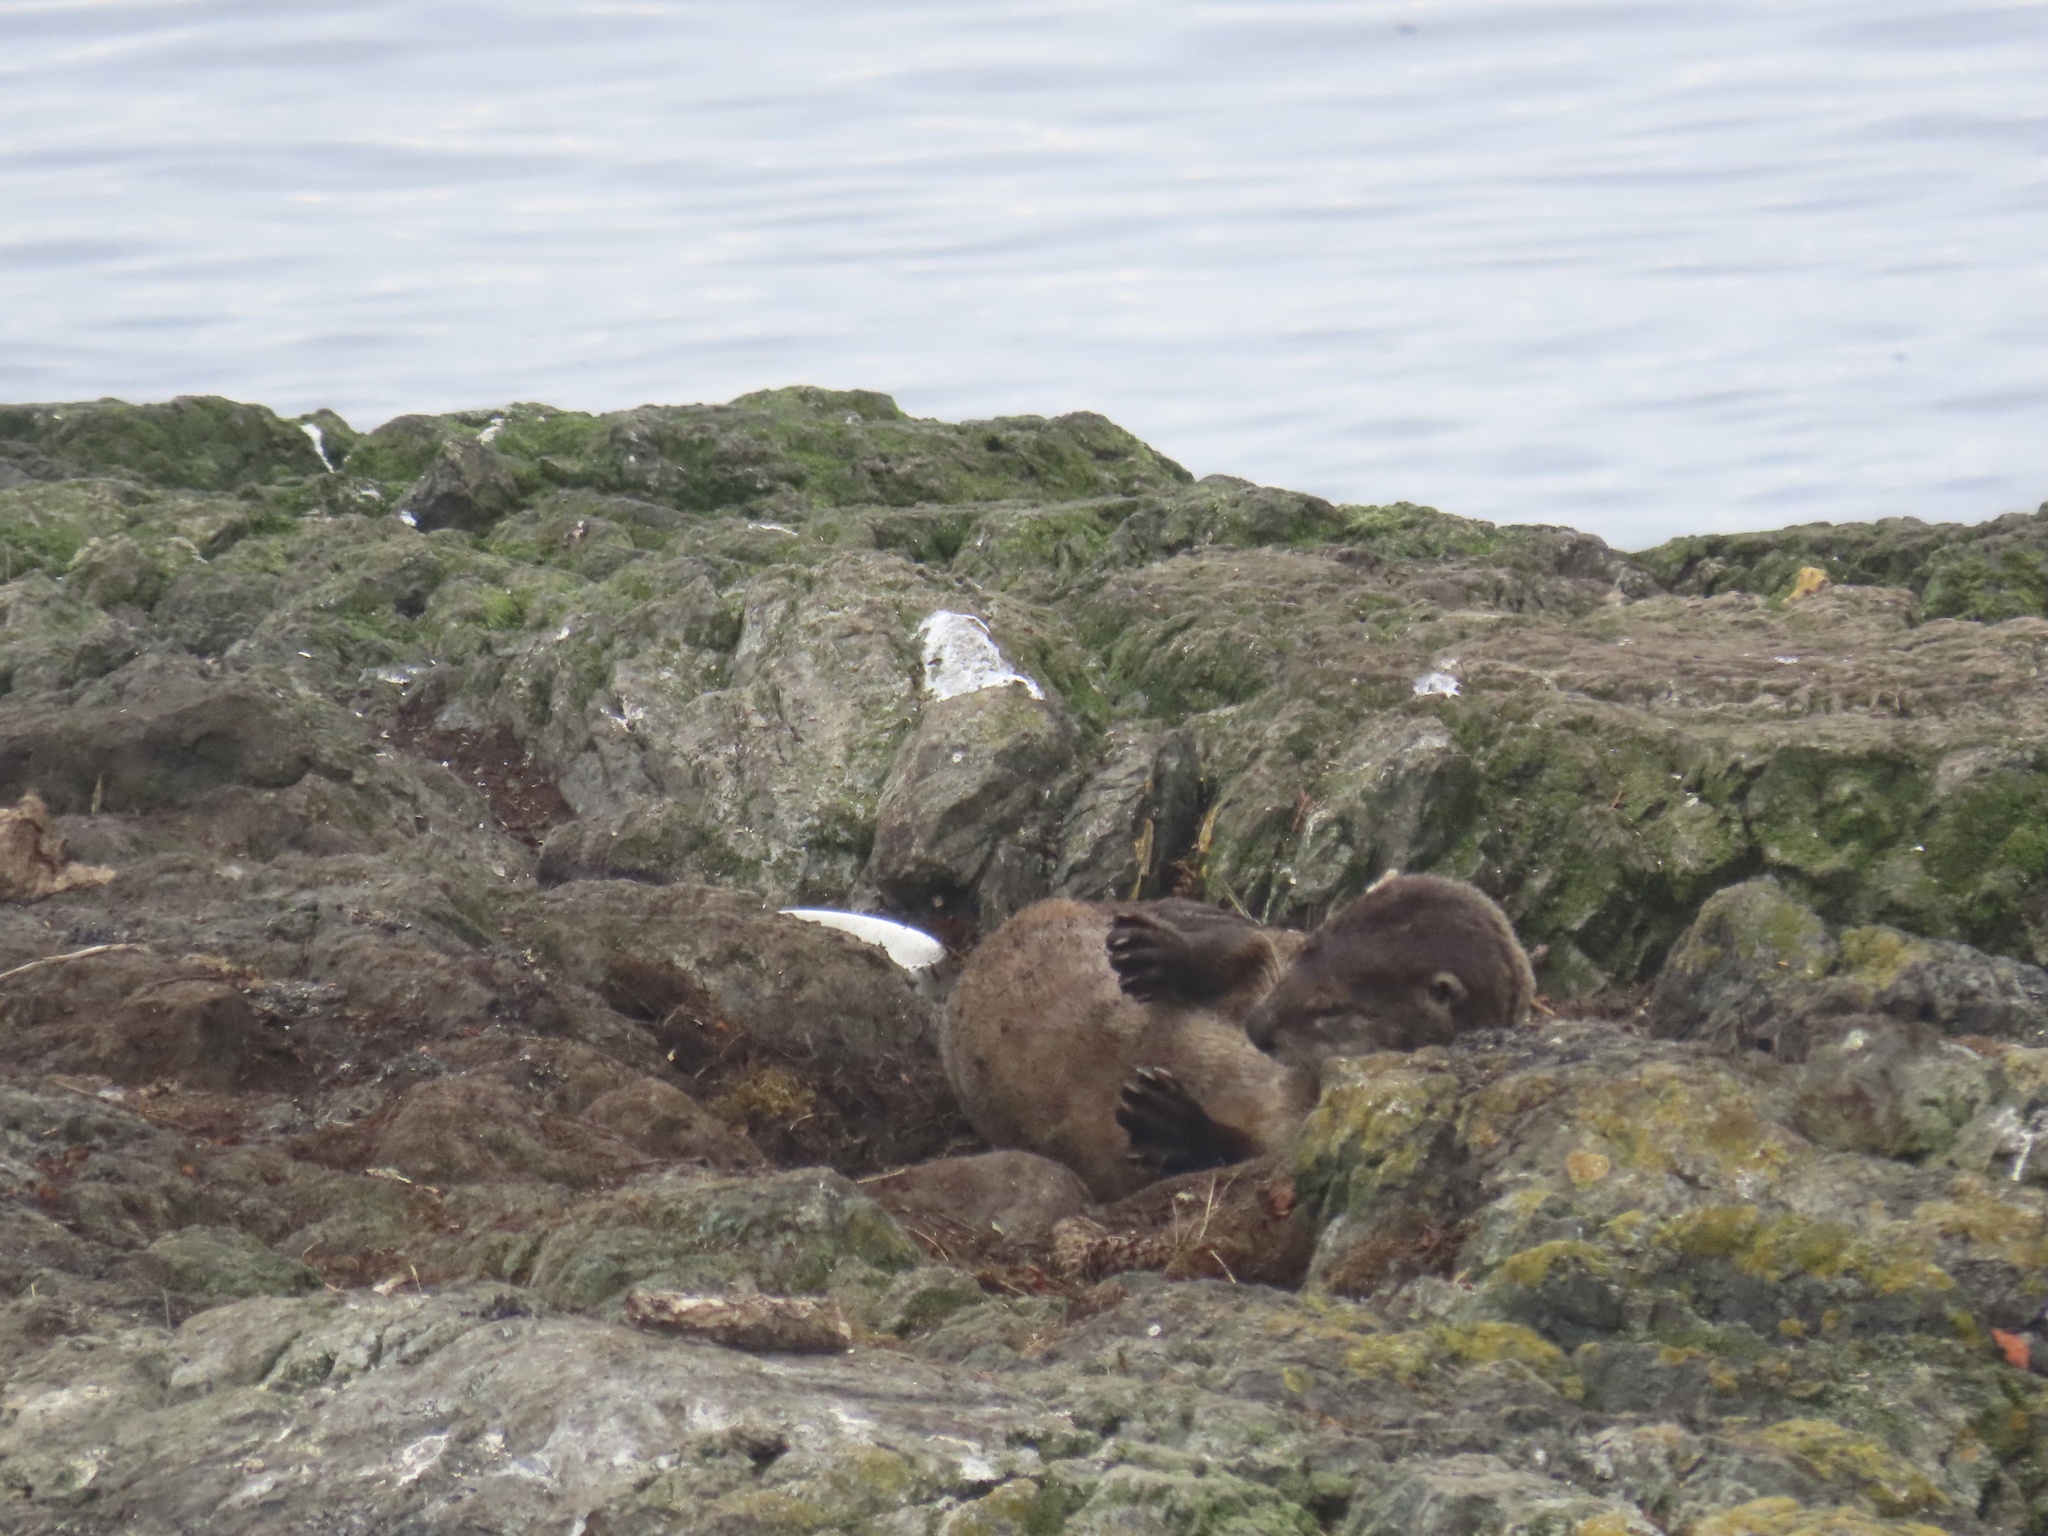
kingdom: Animalia
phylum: Chordata
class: Mammalia
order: Carnivora
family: Mustelidae
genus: Lontra
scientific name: Lontra canadensis
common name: North american river otter
